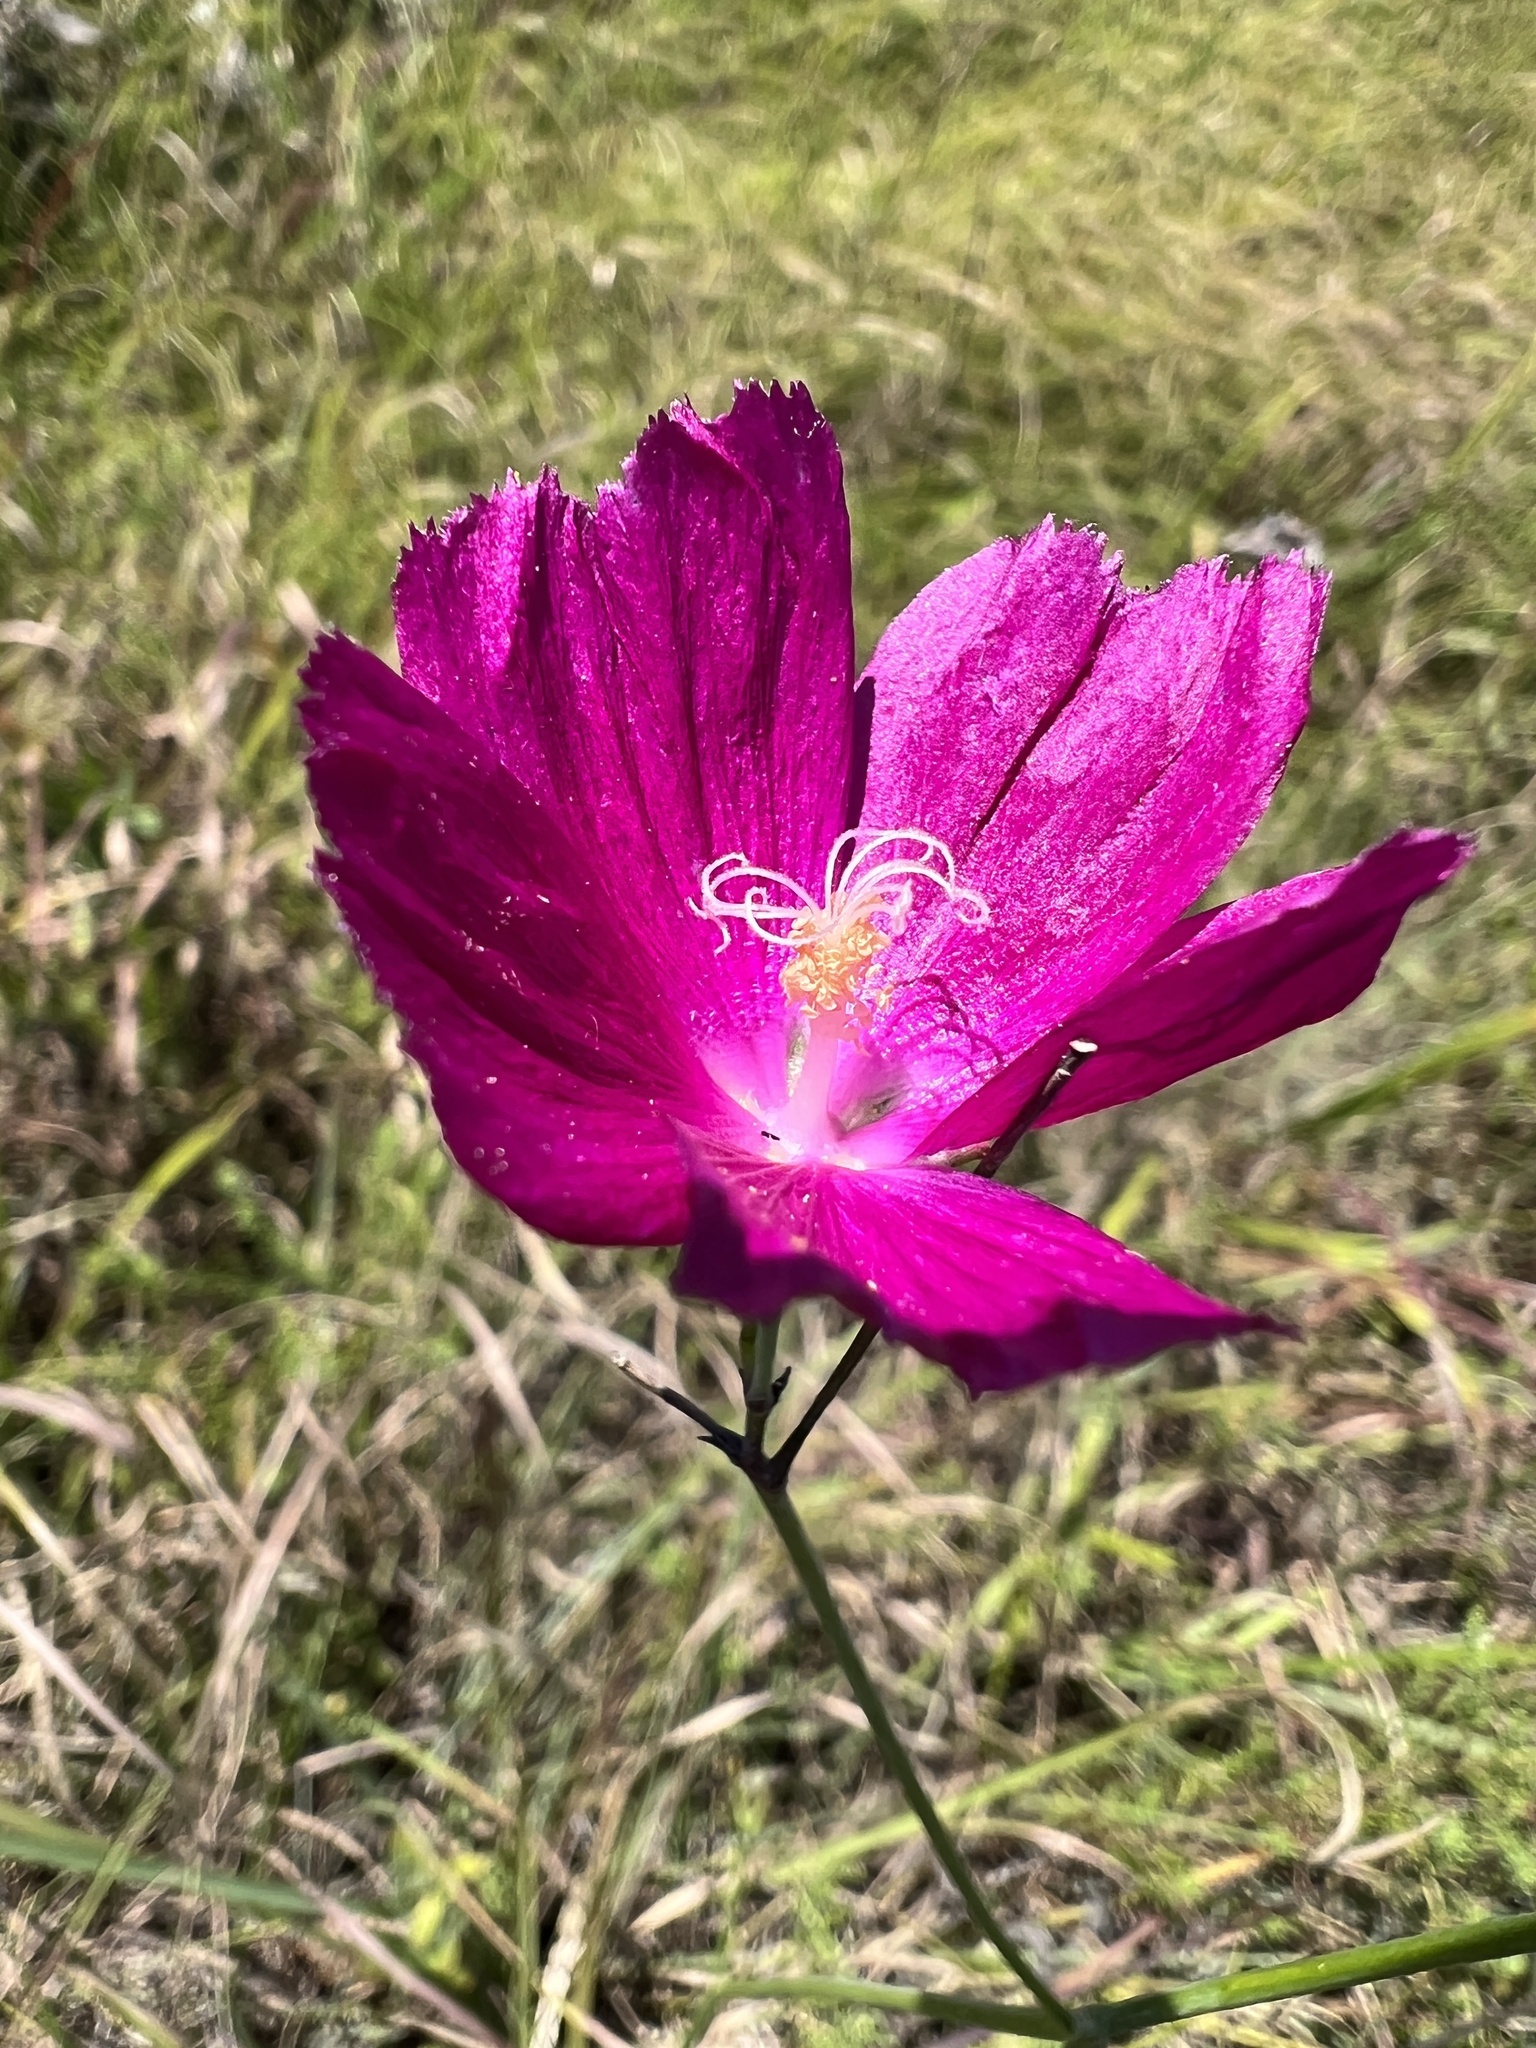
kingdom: Plantae
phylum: Tracheophyta
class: Magnoliopsida
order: Malvales
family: Malvaceae
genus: Callirhoe
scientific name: Callirhoe digitata
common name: Finger poppy-mallow
